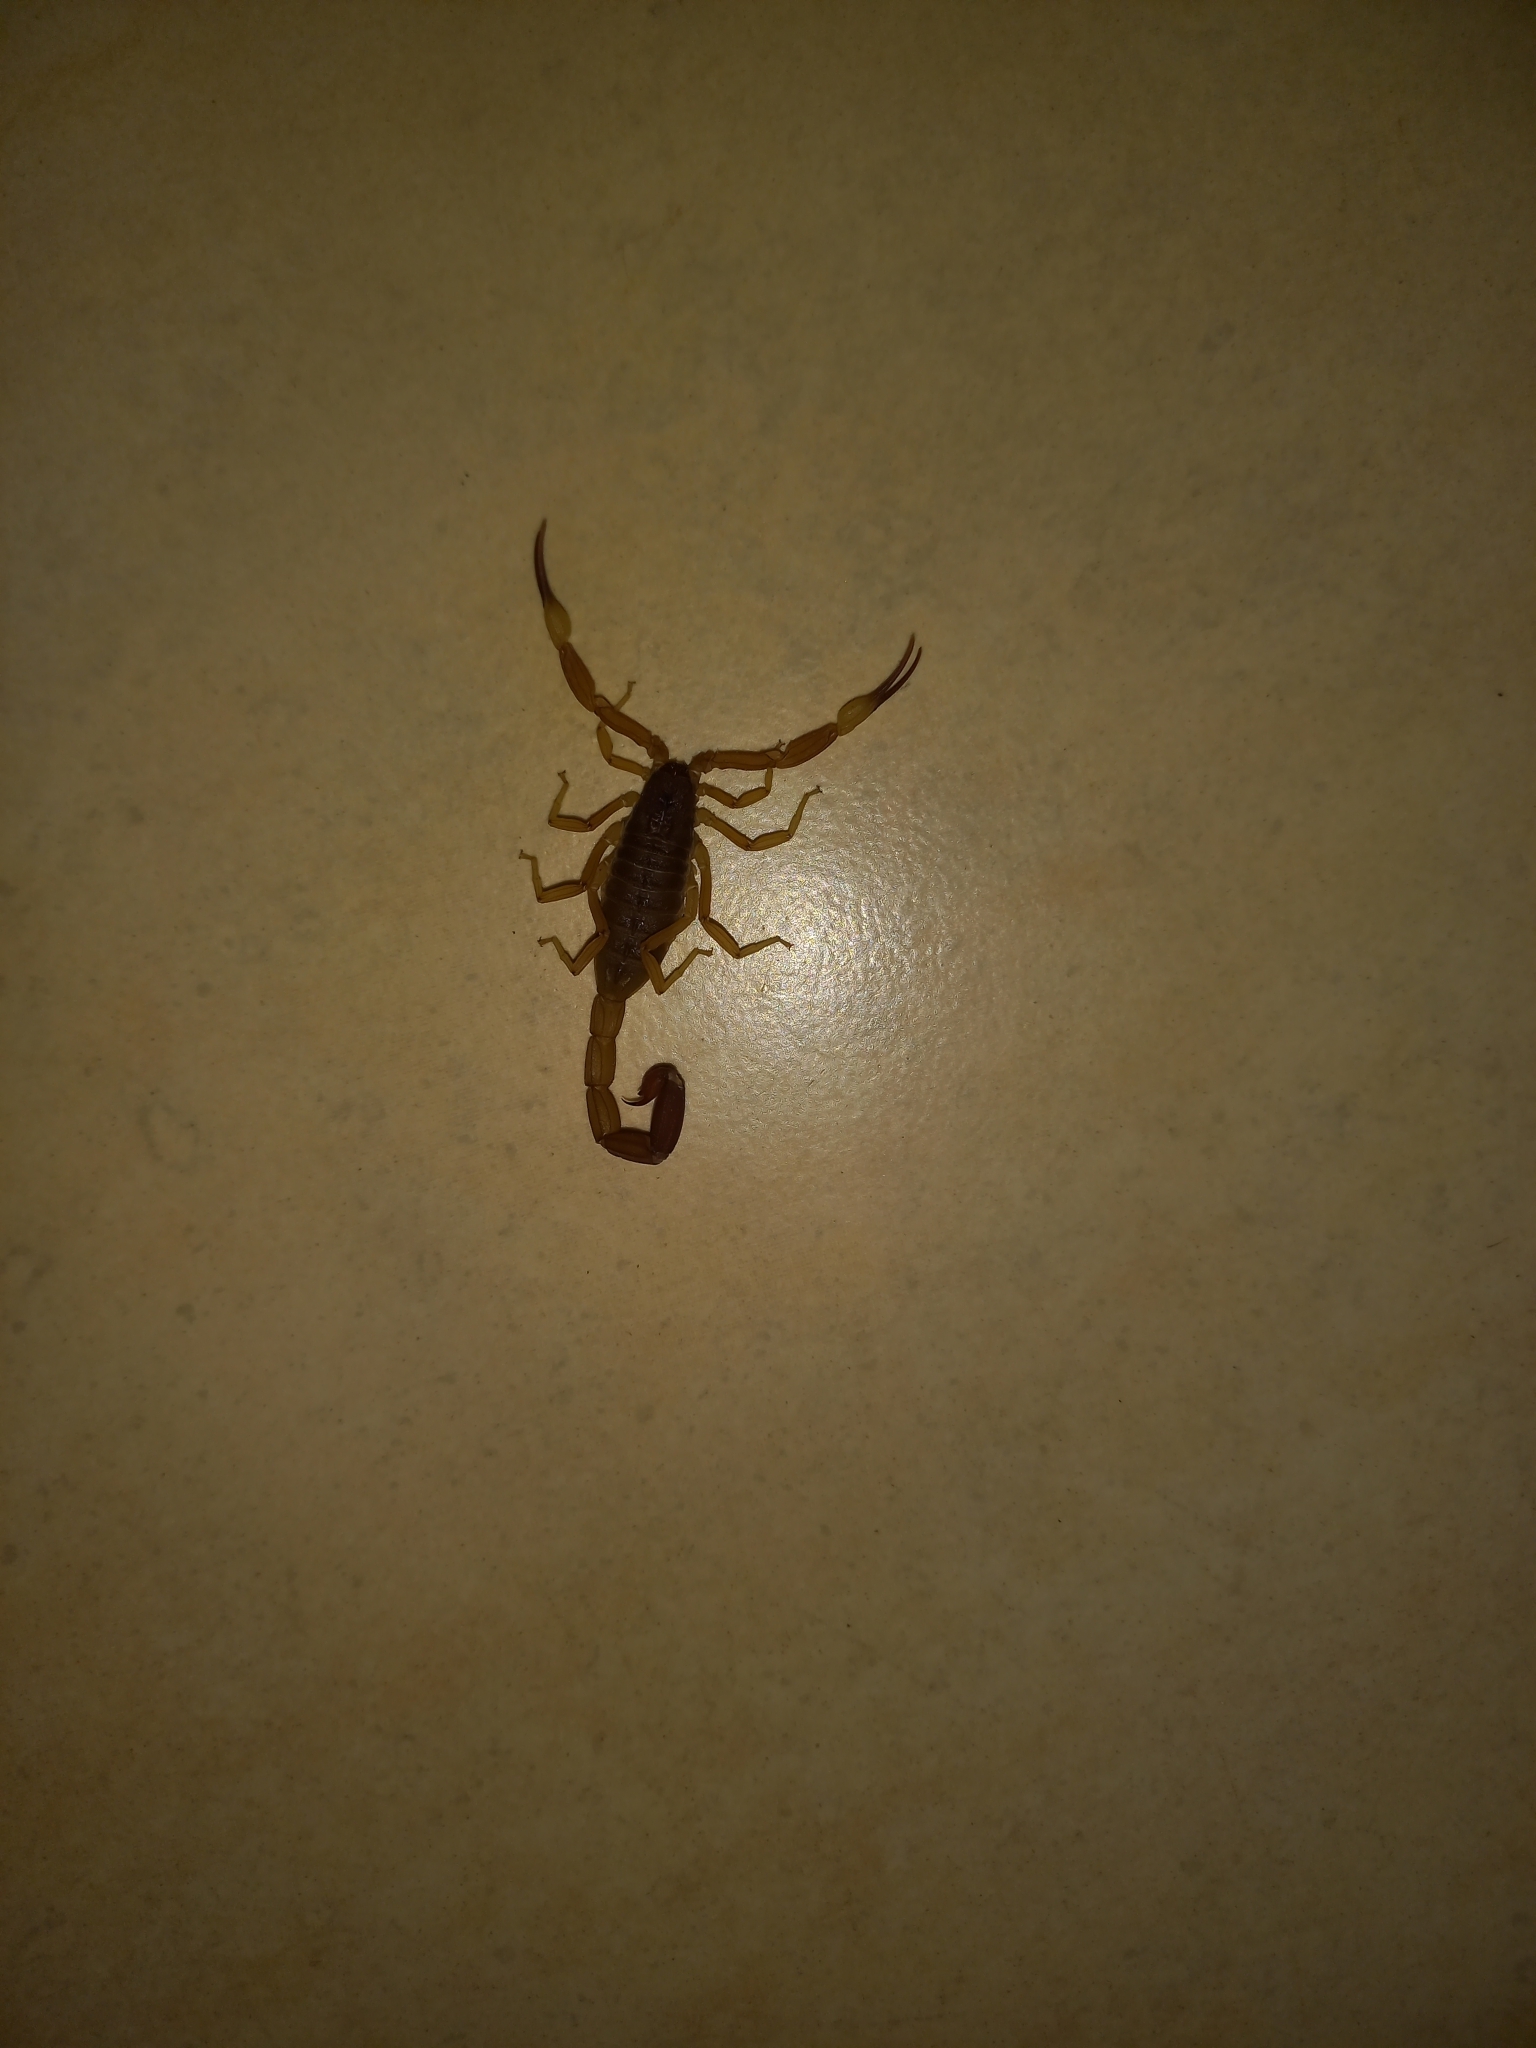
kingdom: Animalia
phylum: Arthropoda
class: Arachnida
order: Scorpiones
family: Buthidae
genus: Tityus
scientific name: Tityus confluens
